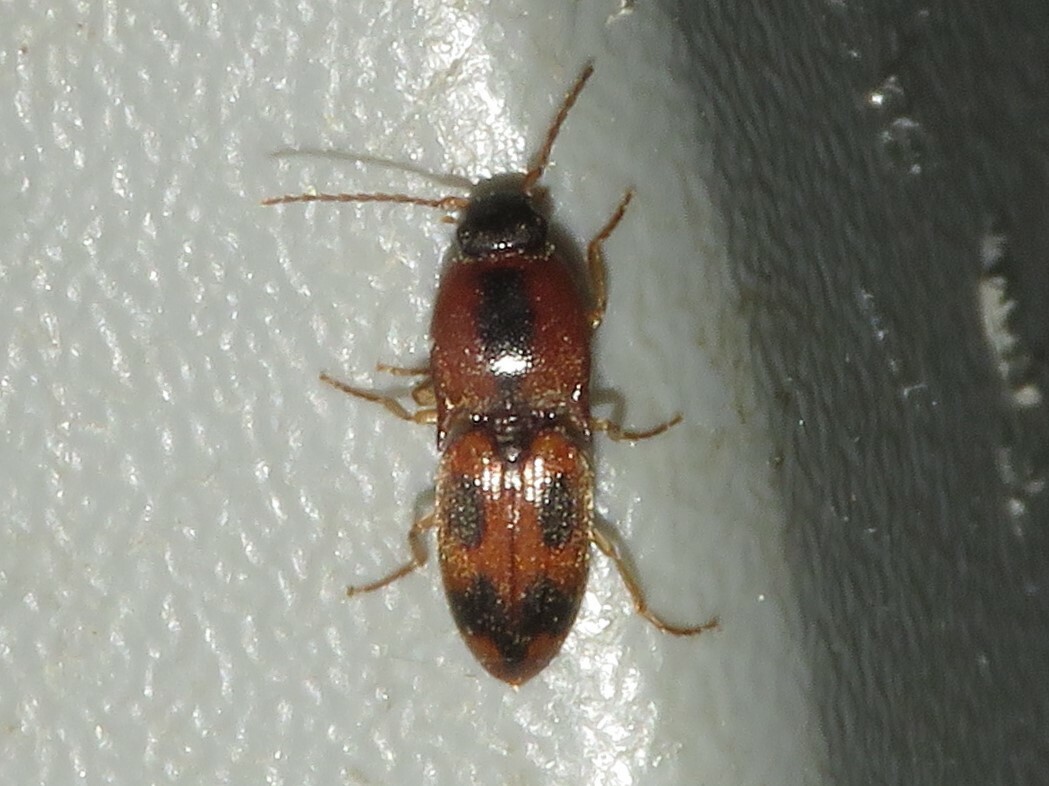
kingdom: Animalia
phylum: Arthropoda
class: Insecta
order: Coleoptera
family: Elateridae
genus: Aeolus
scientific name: Aeolus mellillus
